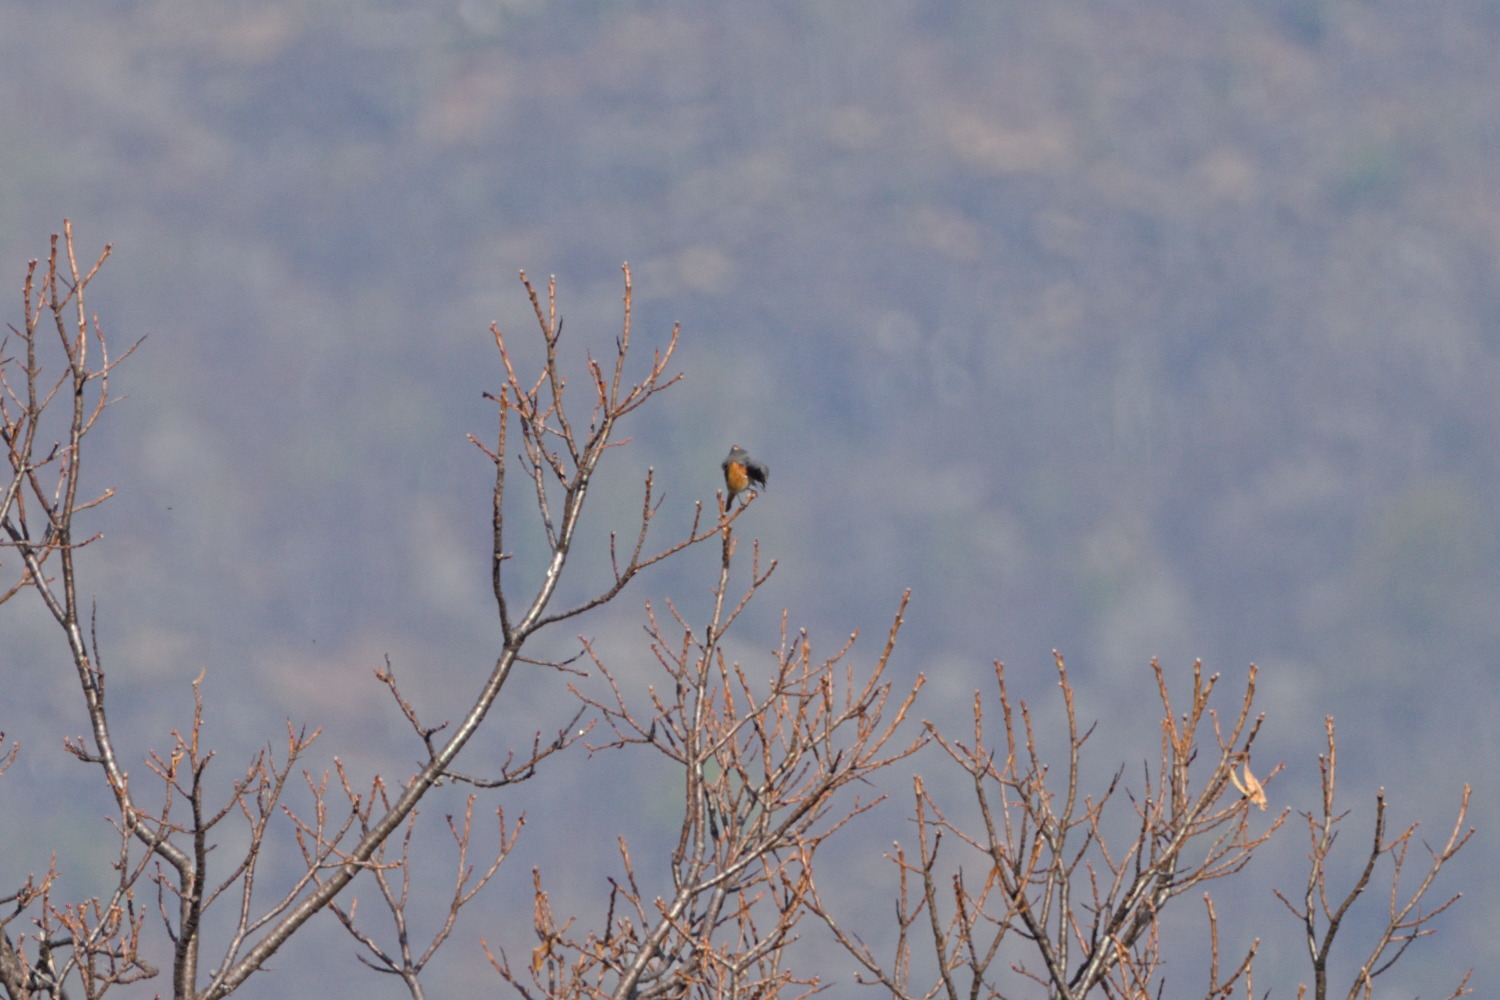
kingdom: Animalia
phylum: Chordata
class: Aves
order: Passeriformes
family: Muscicapidae
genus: Phoenicurus
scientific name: Phoenicurus phoenicurus
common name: Common redstart
